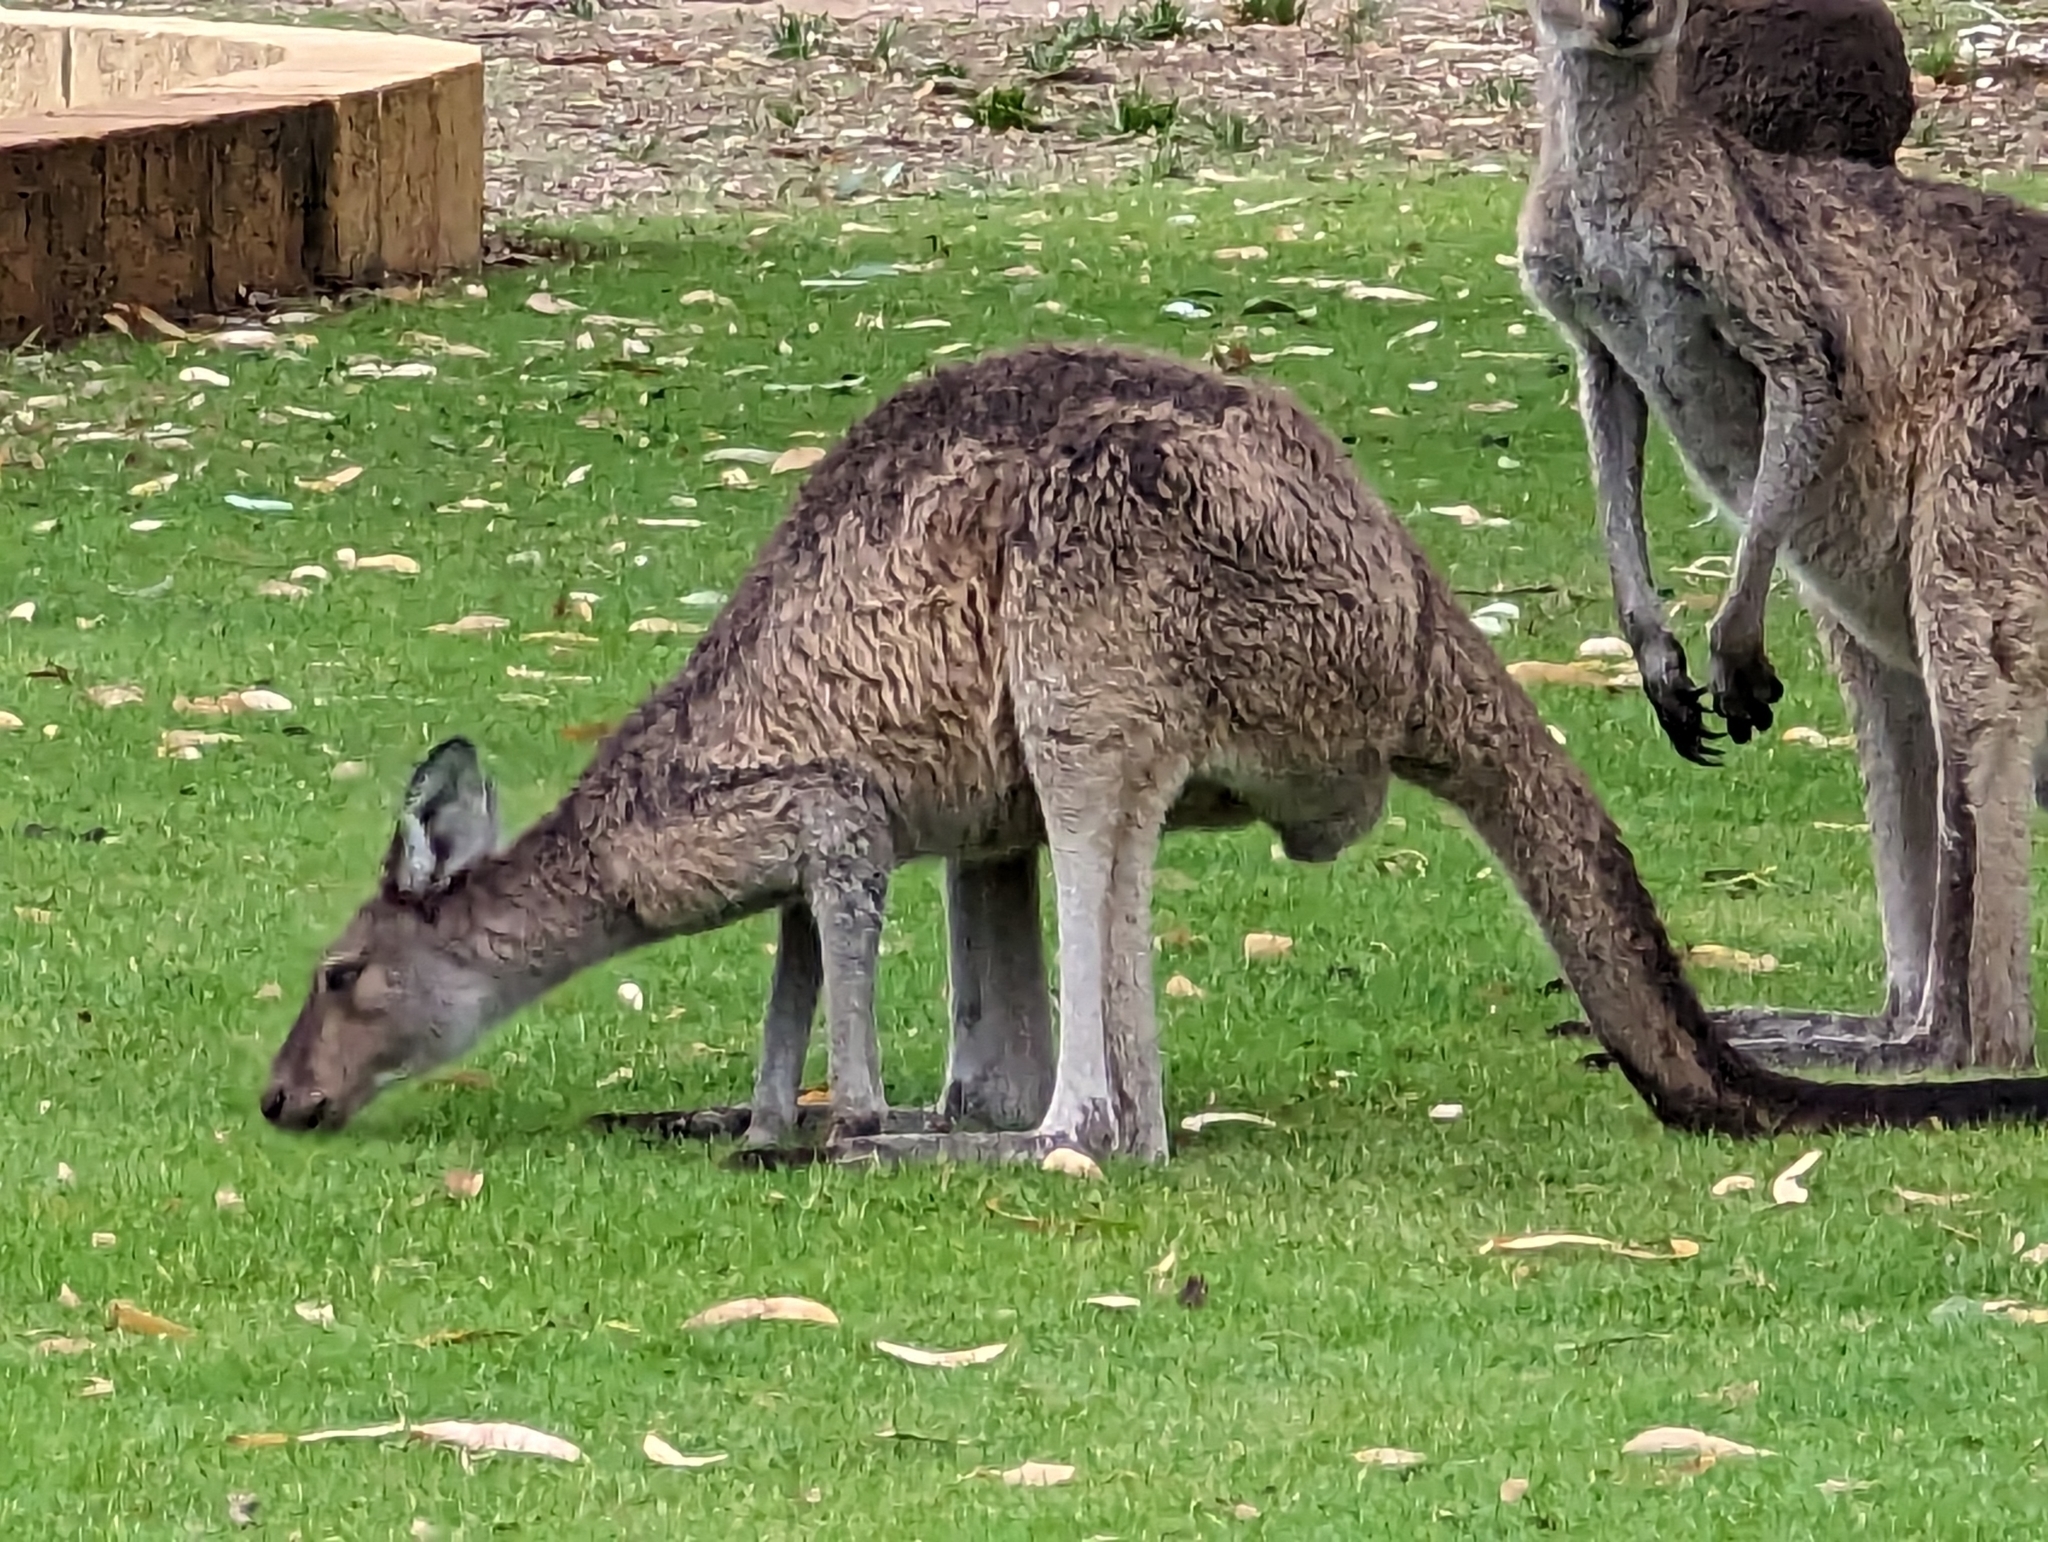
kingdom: Animalia
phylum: Chordata
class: Mammalia
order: Diprotodontia
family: Macropodidae
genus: Macropus
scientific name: Macropus fuliginosus
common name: Western grey kangaroo
